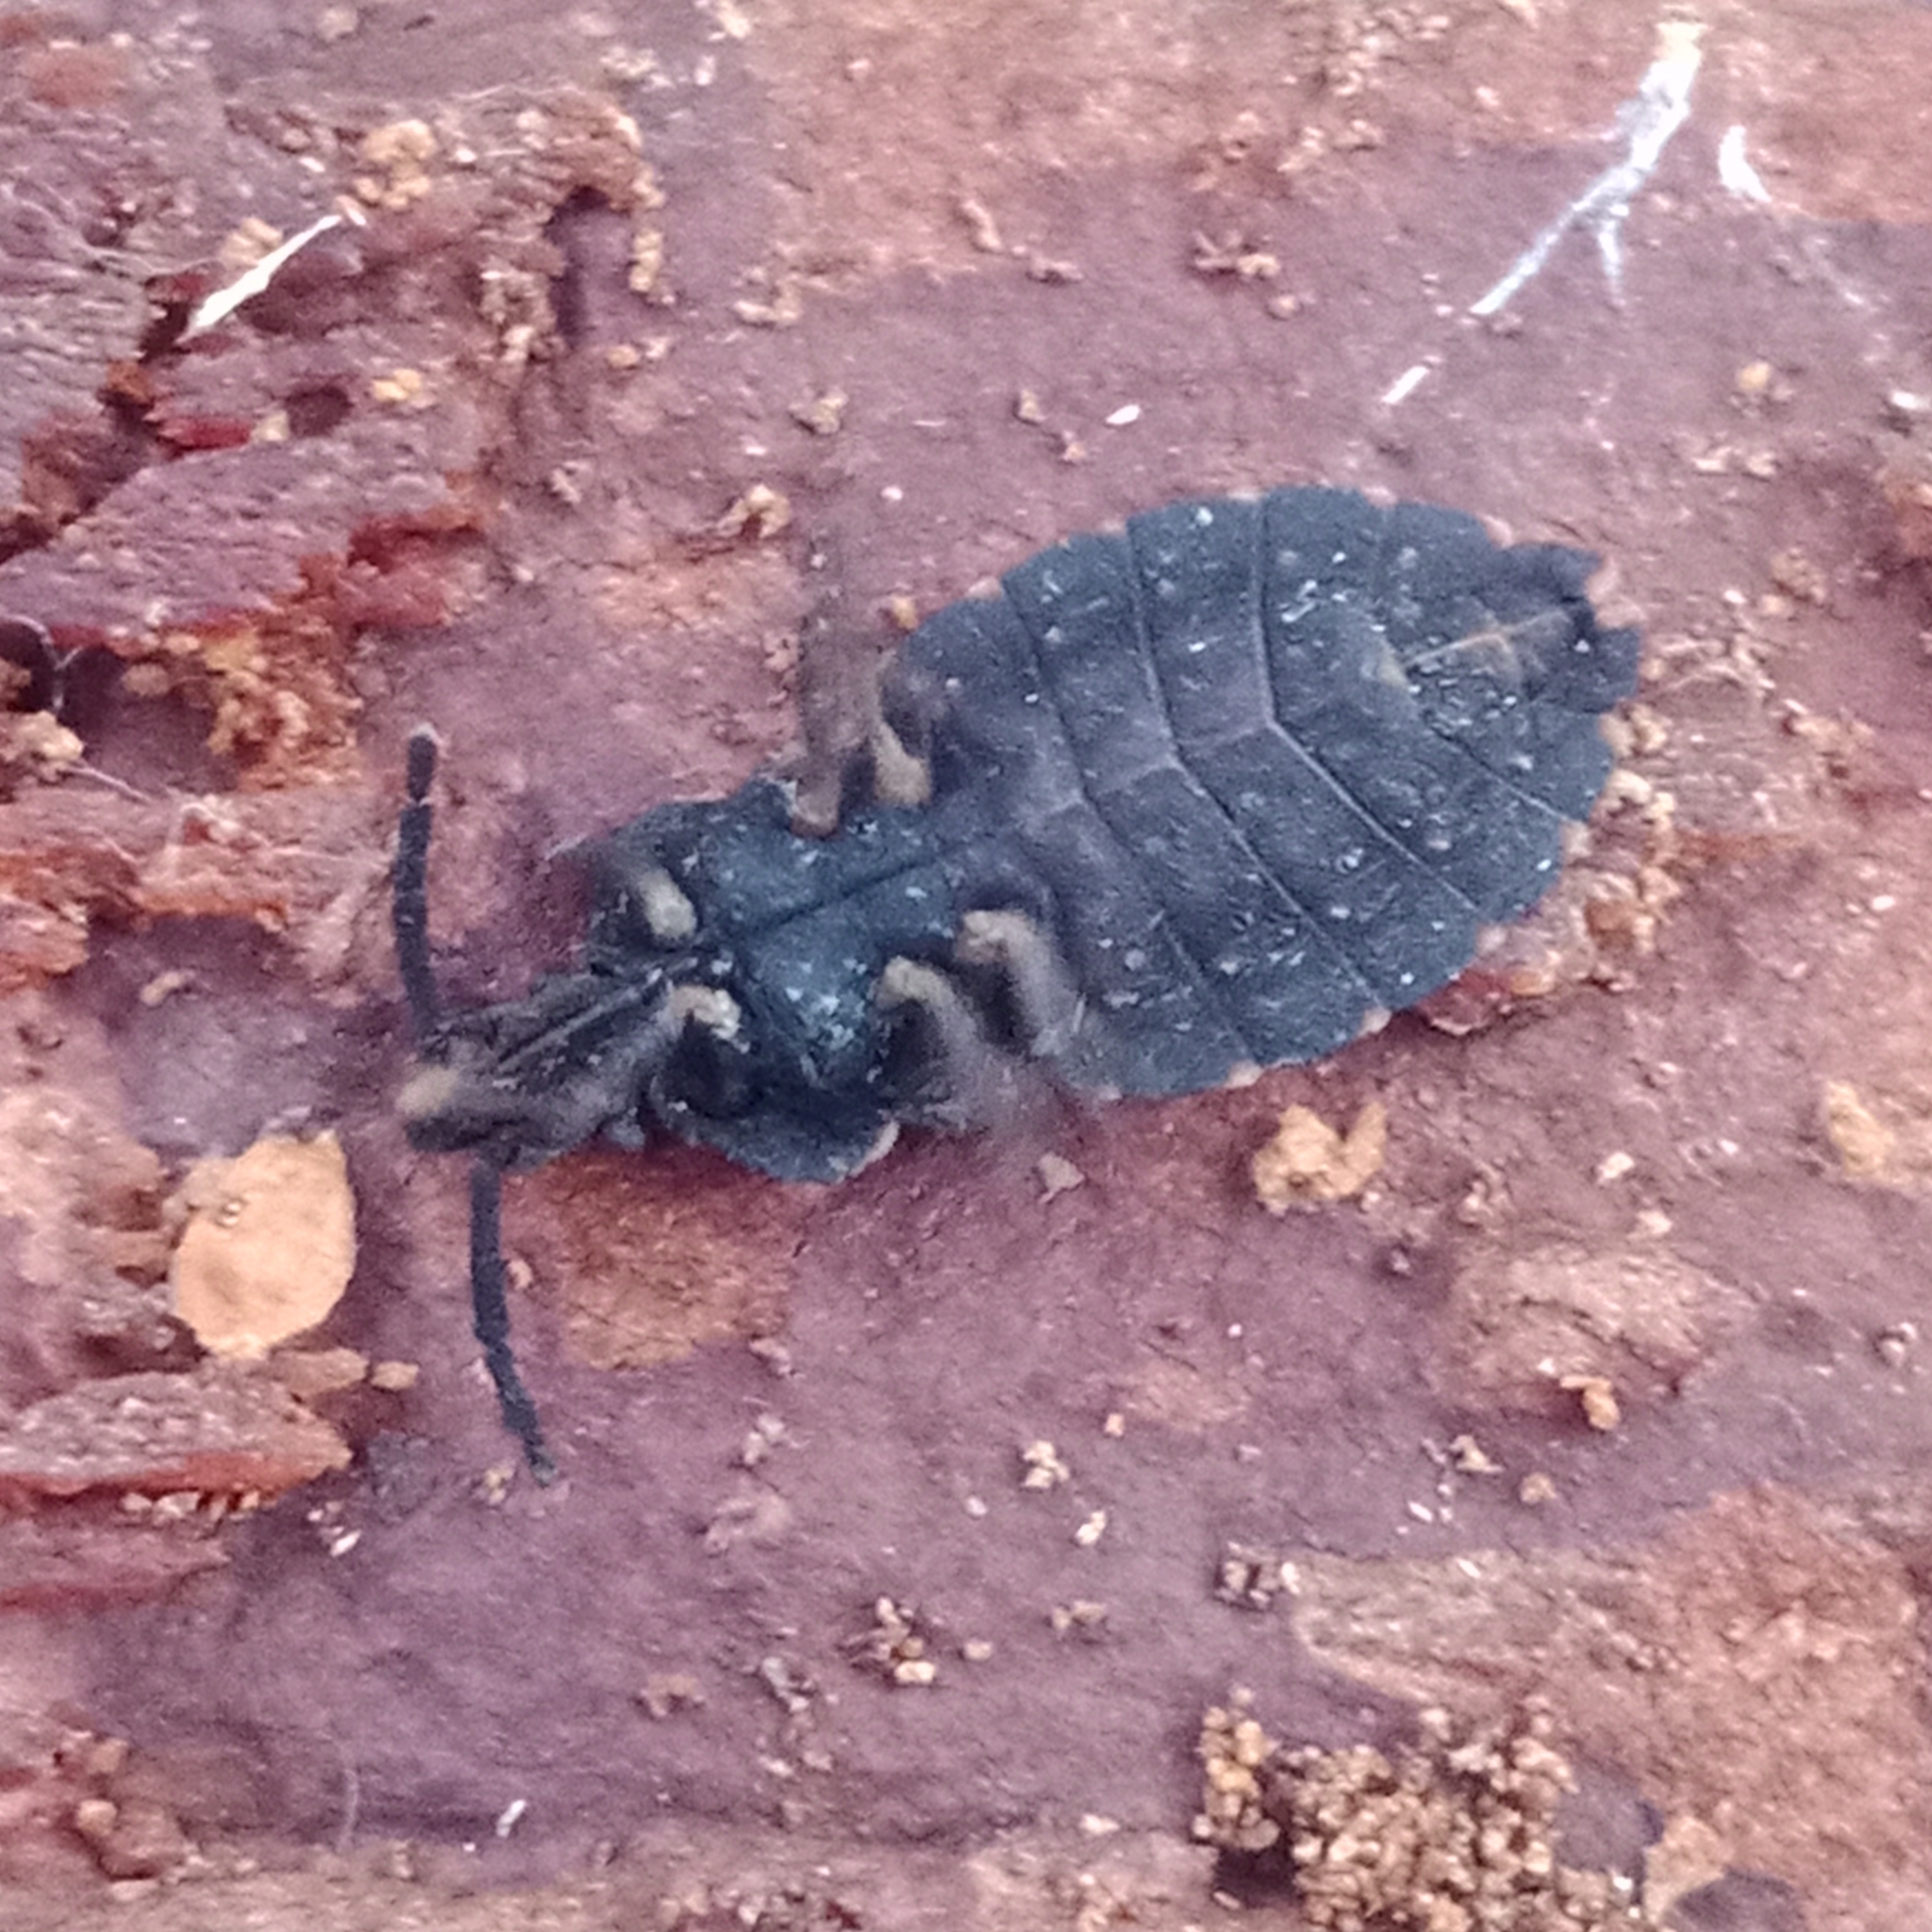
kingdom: Animalia
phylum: Arthropoda
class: Insecta
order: Hemiptera
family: Aradidae
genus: Aradus
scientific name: Aradus corticalis
